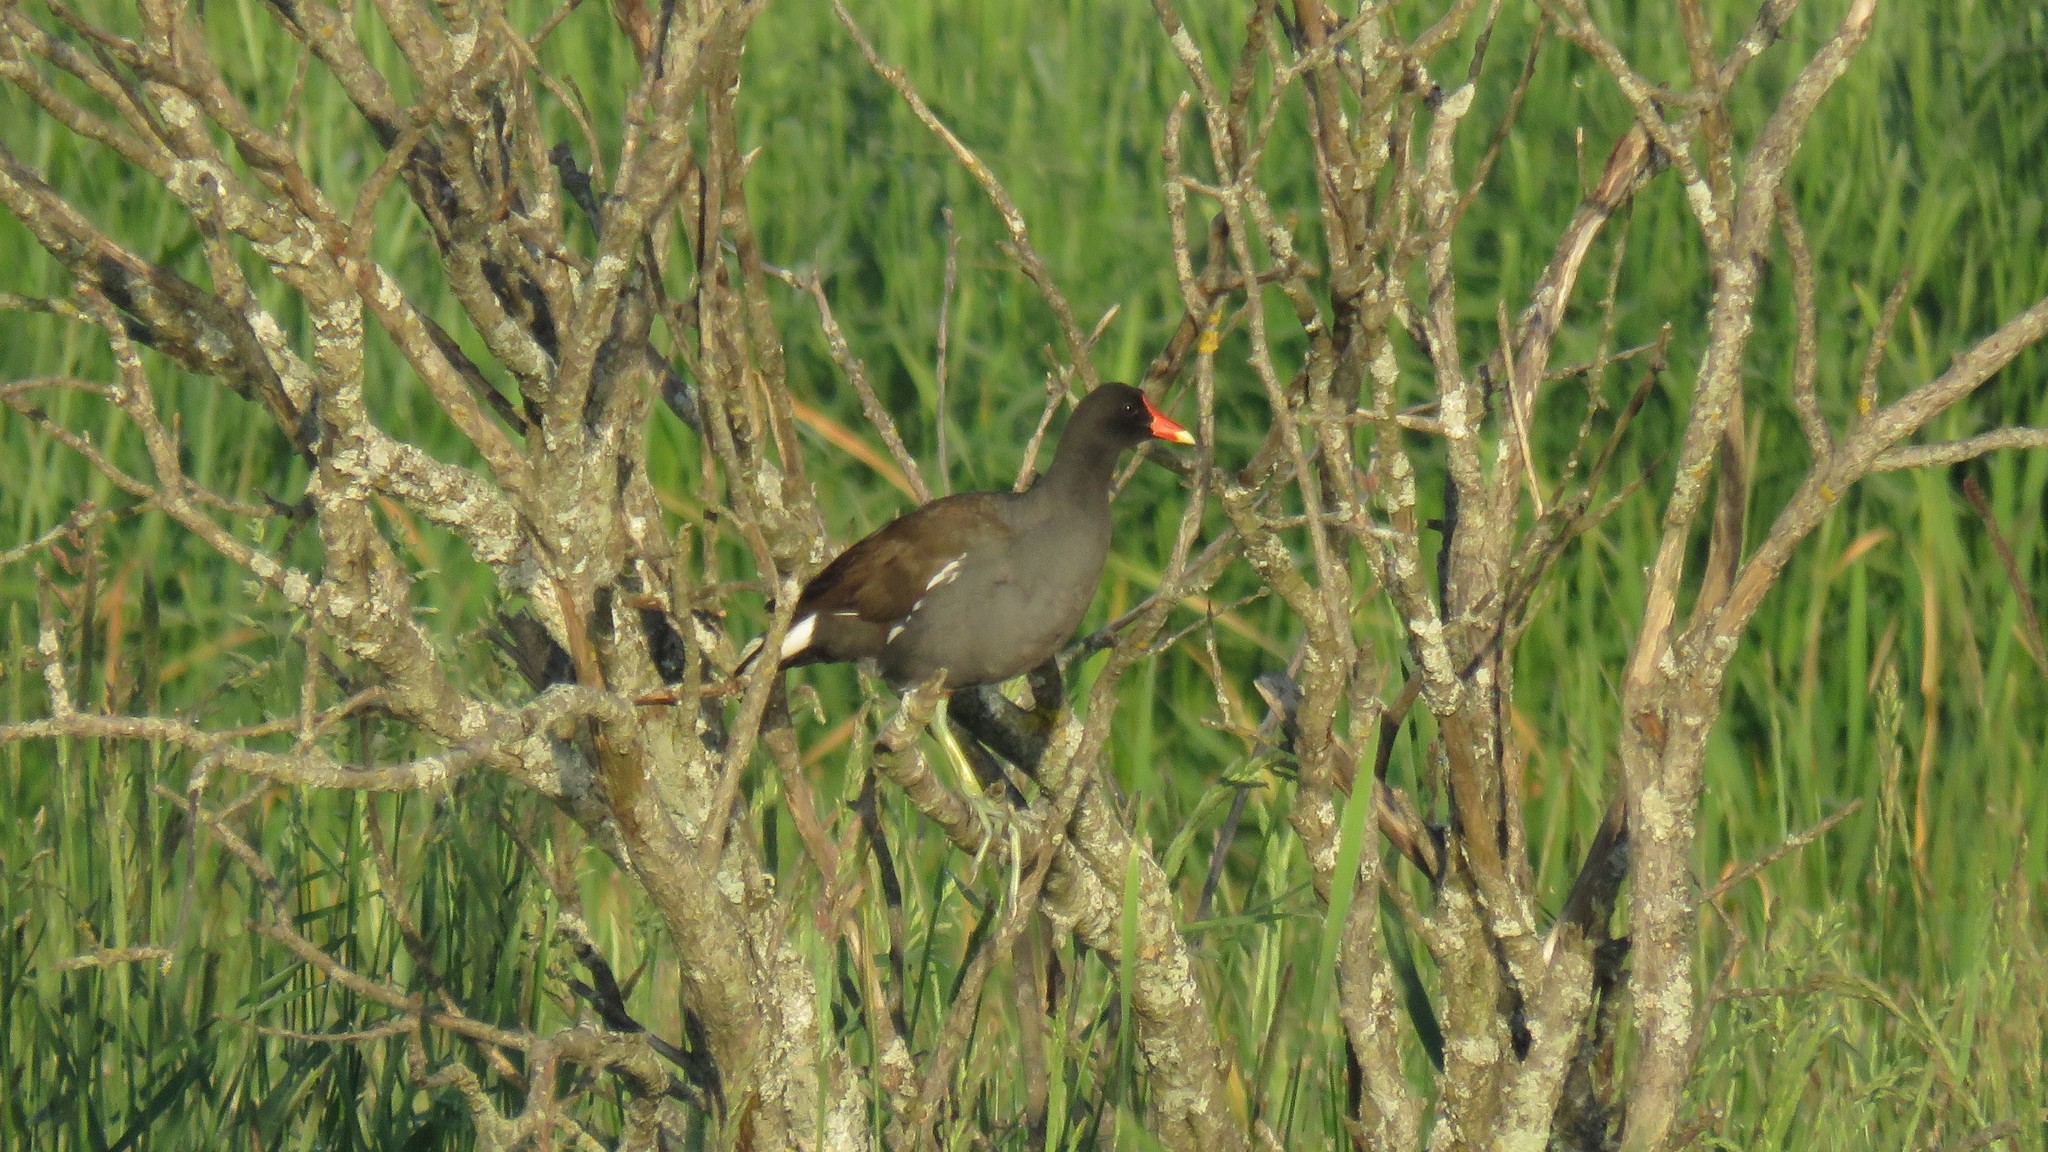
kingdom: Animalia
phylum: Chordata
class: Aves
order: Gruiformes
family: Rallidae
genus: Gallinula
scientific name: Gallinula chloropus
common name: Common moorhen
